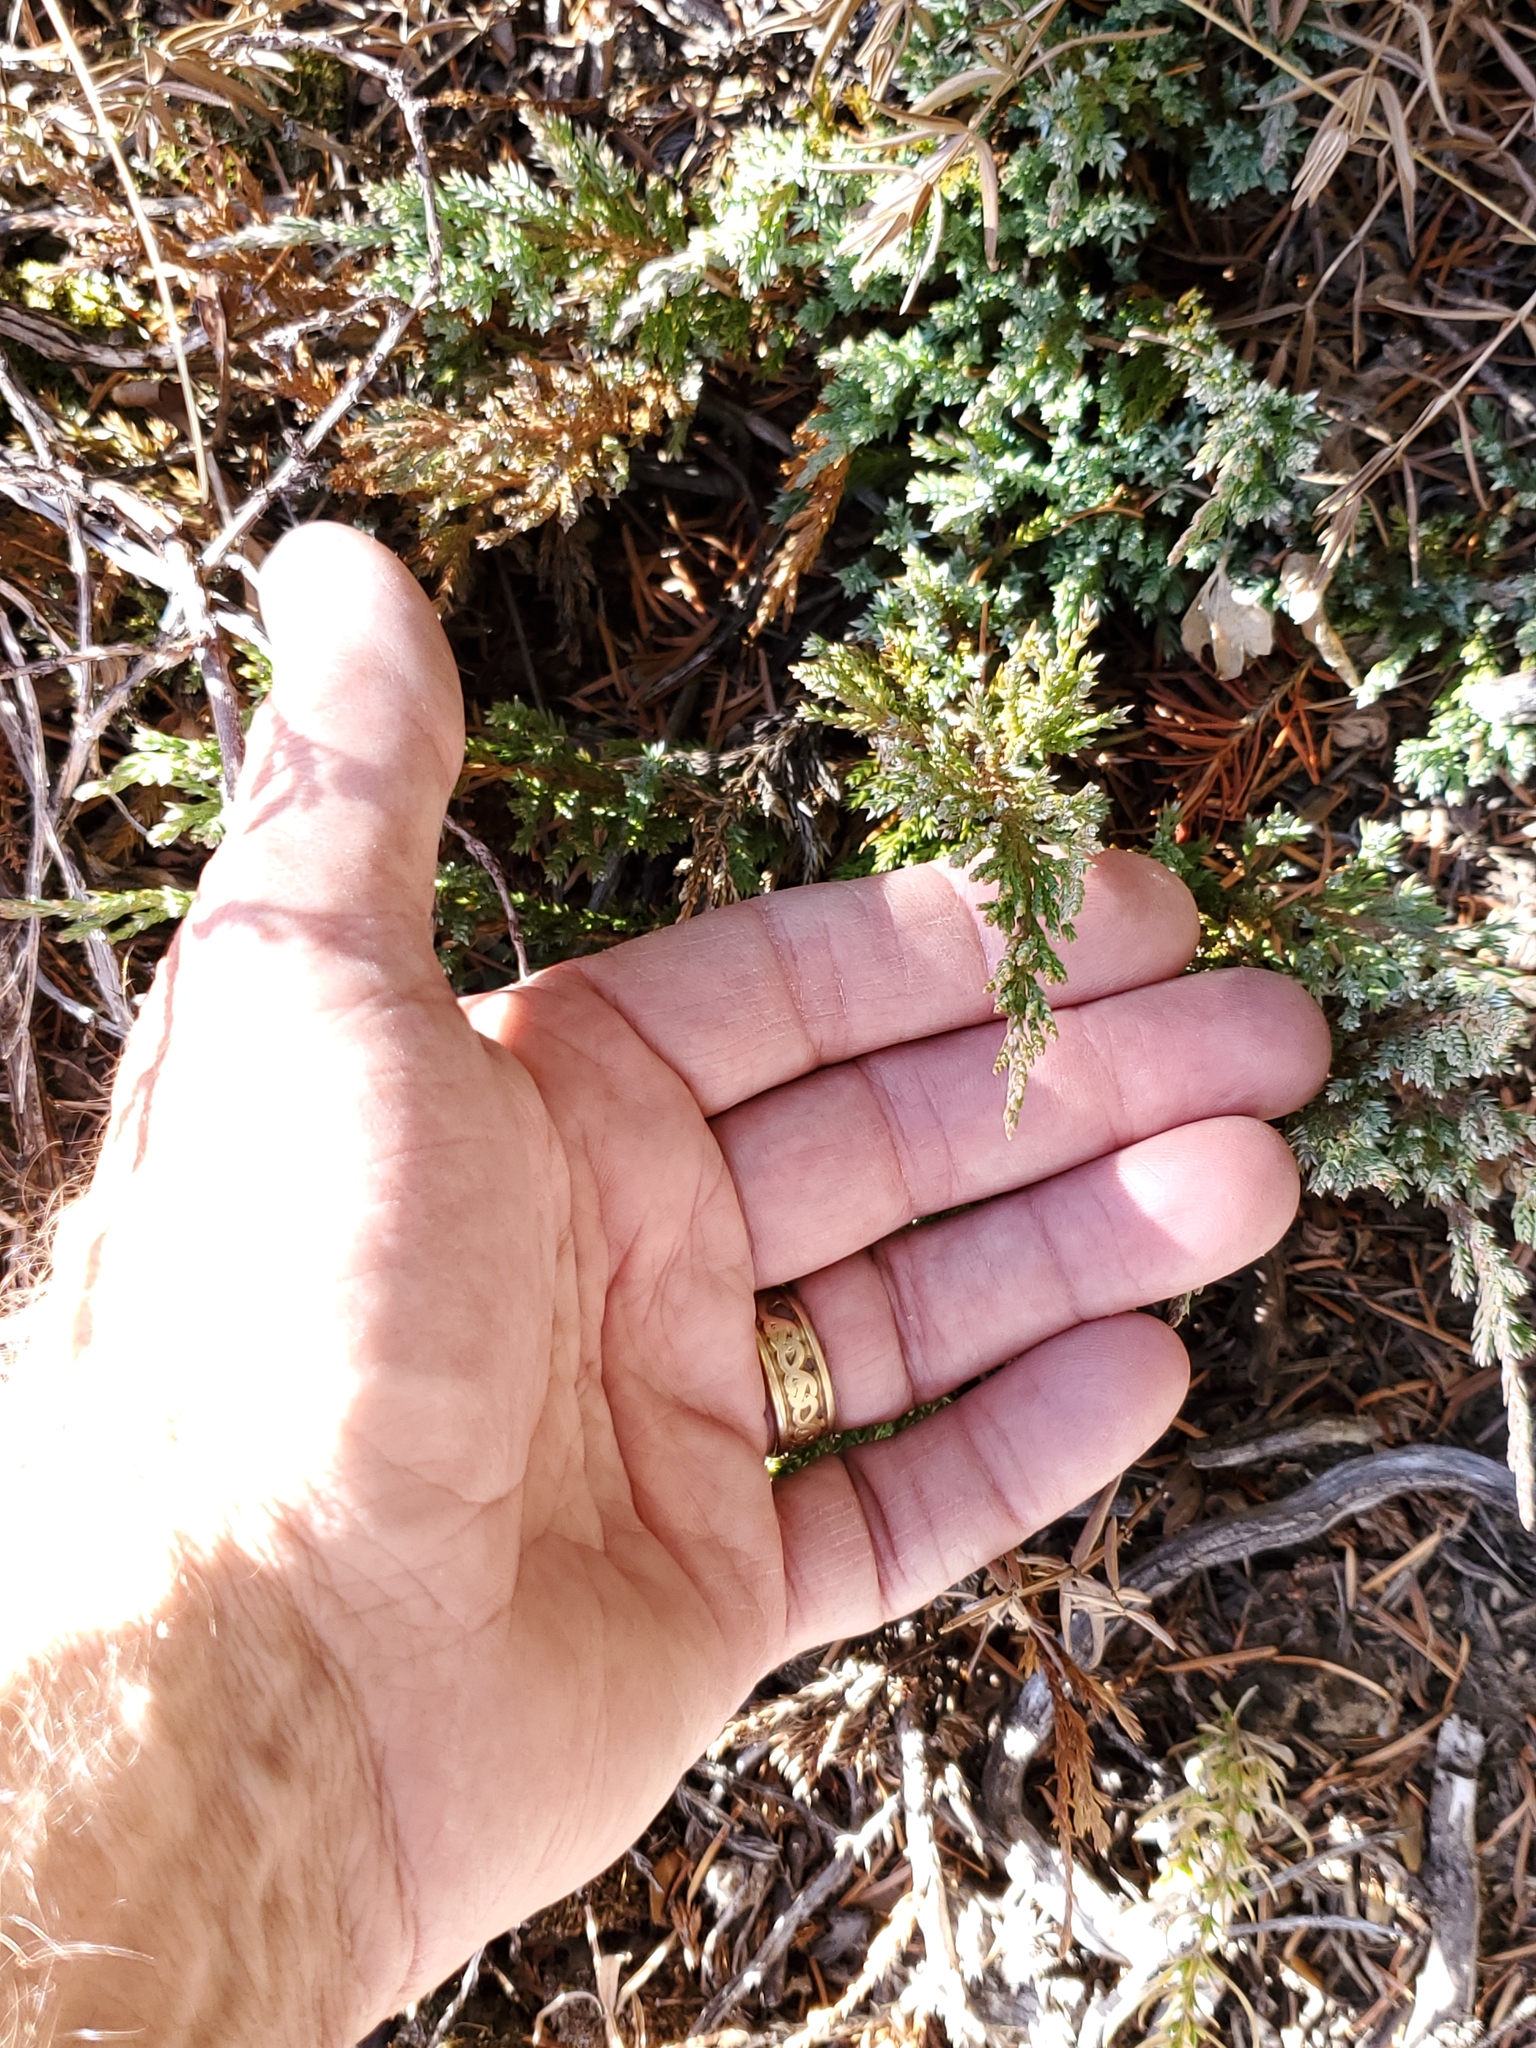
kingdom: Plantae
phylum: Tracheophyta
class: Pinopsida
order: Pinales
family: Cupressaceae
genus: Juniperus
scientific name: Juniperus horizontalis
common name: Creeping juniper
